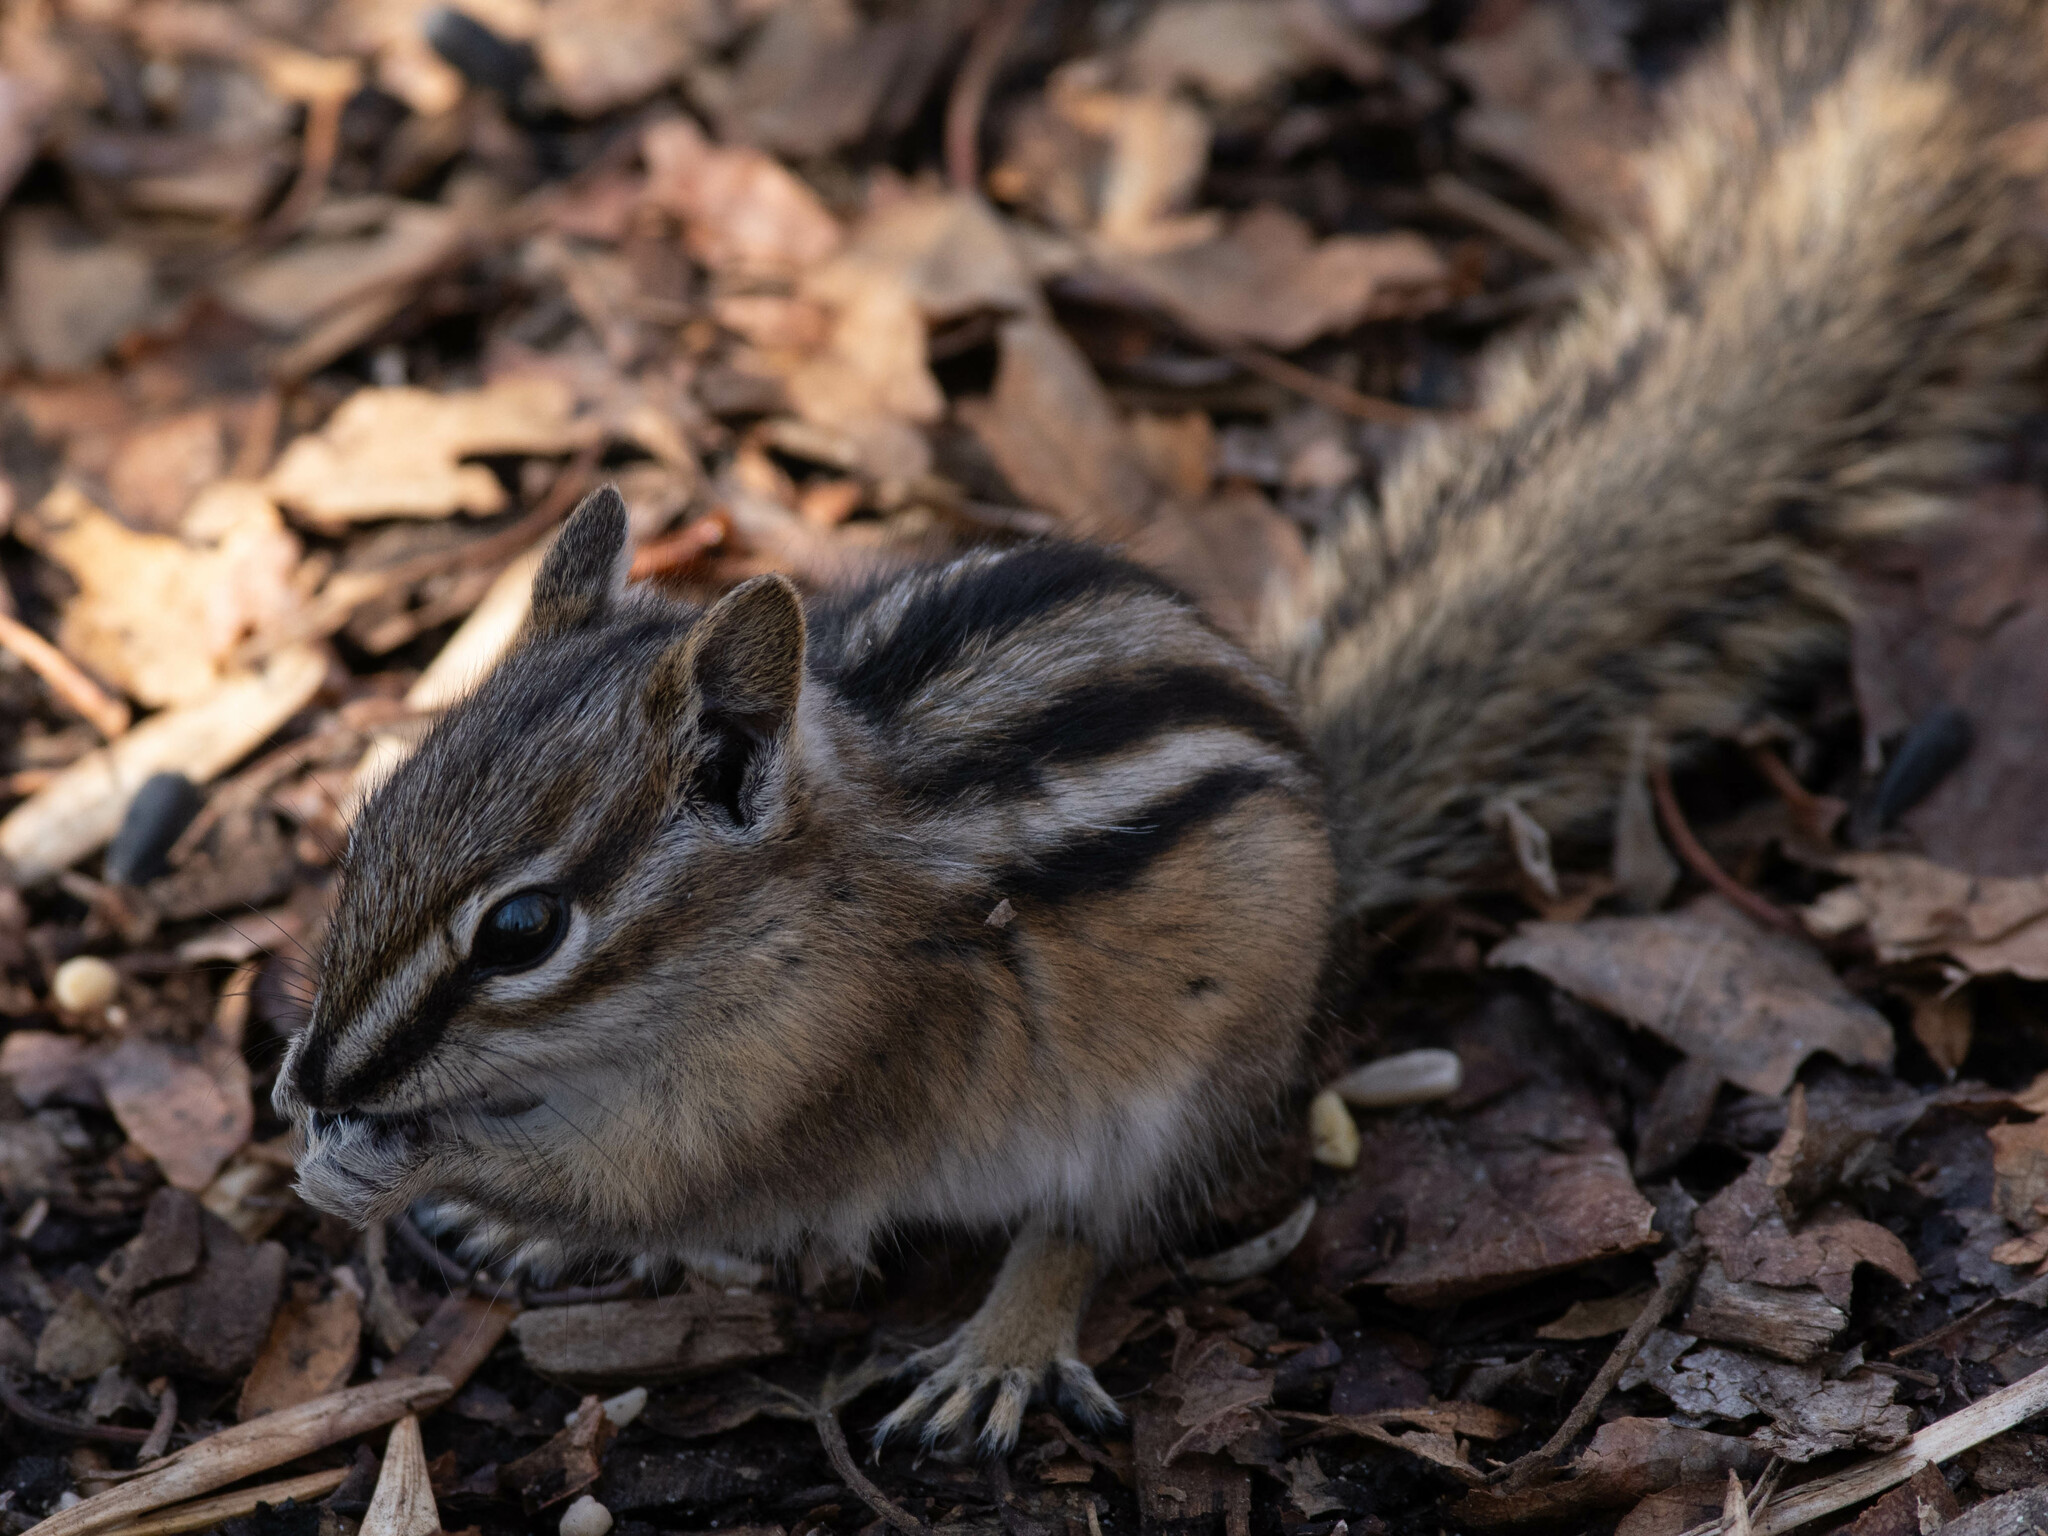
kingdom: Animalia
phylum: Chordata
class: Mammalia
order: Rodentia
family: Sciuridae
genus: Tamias
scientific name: Tamias minimus
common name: Least chipmunk
